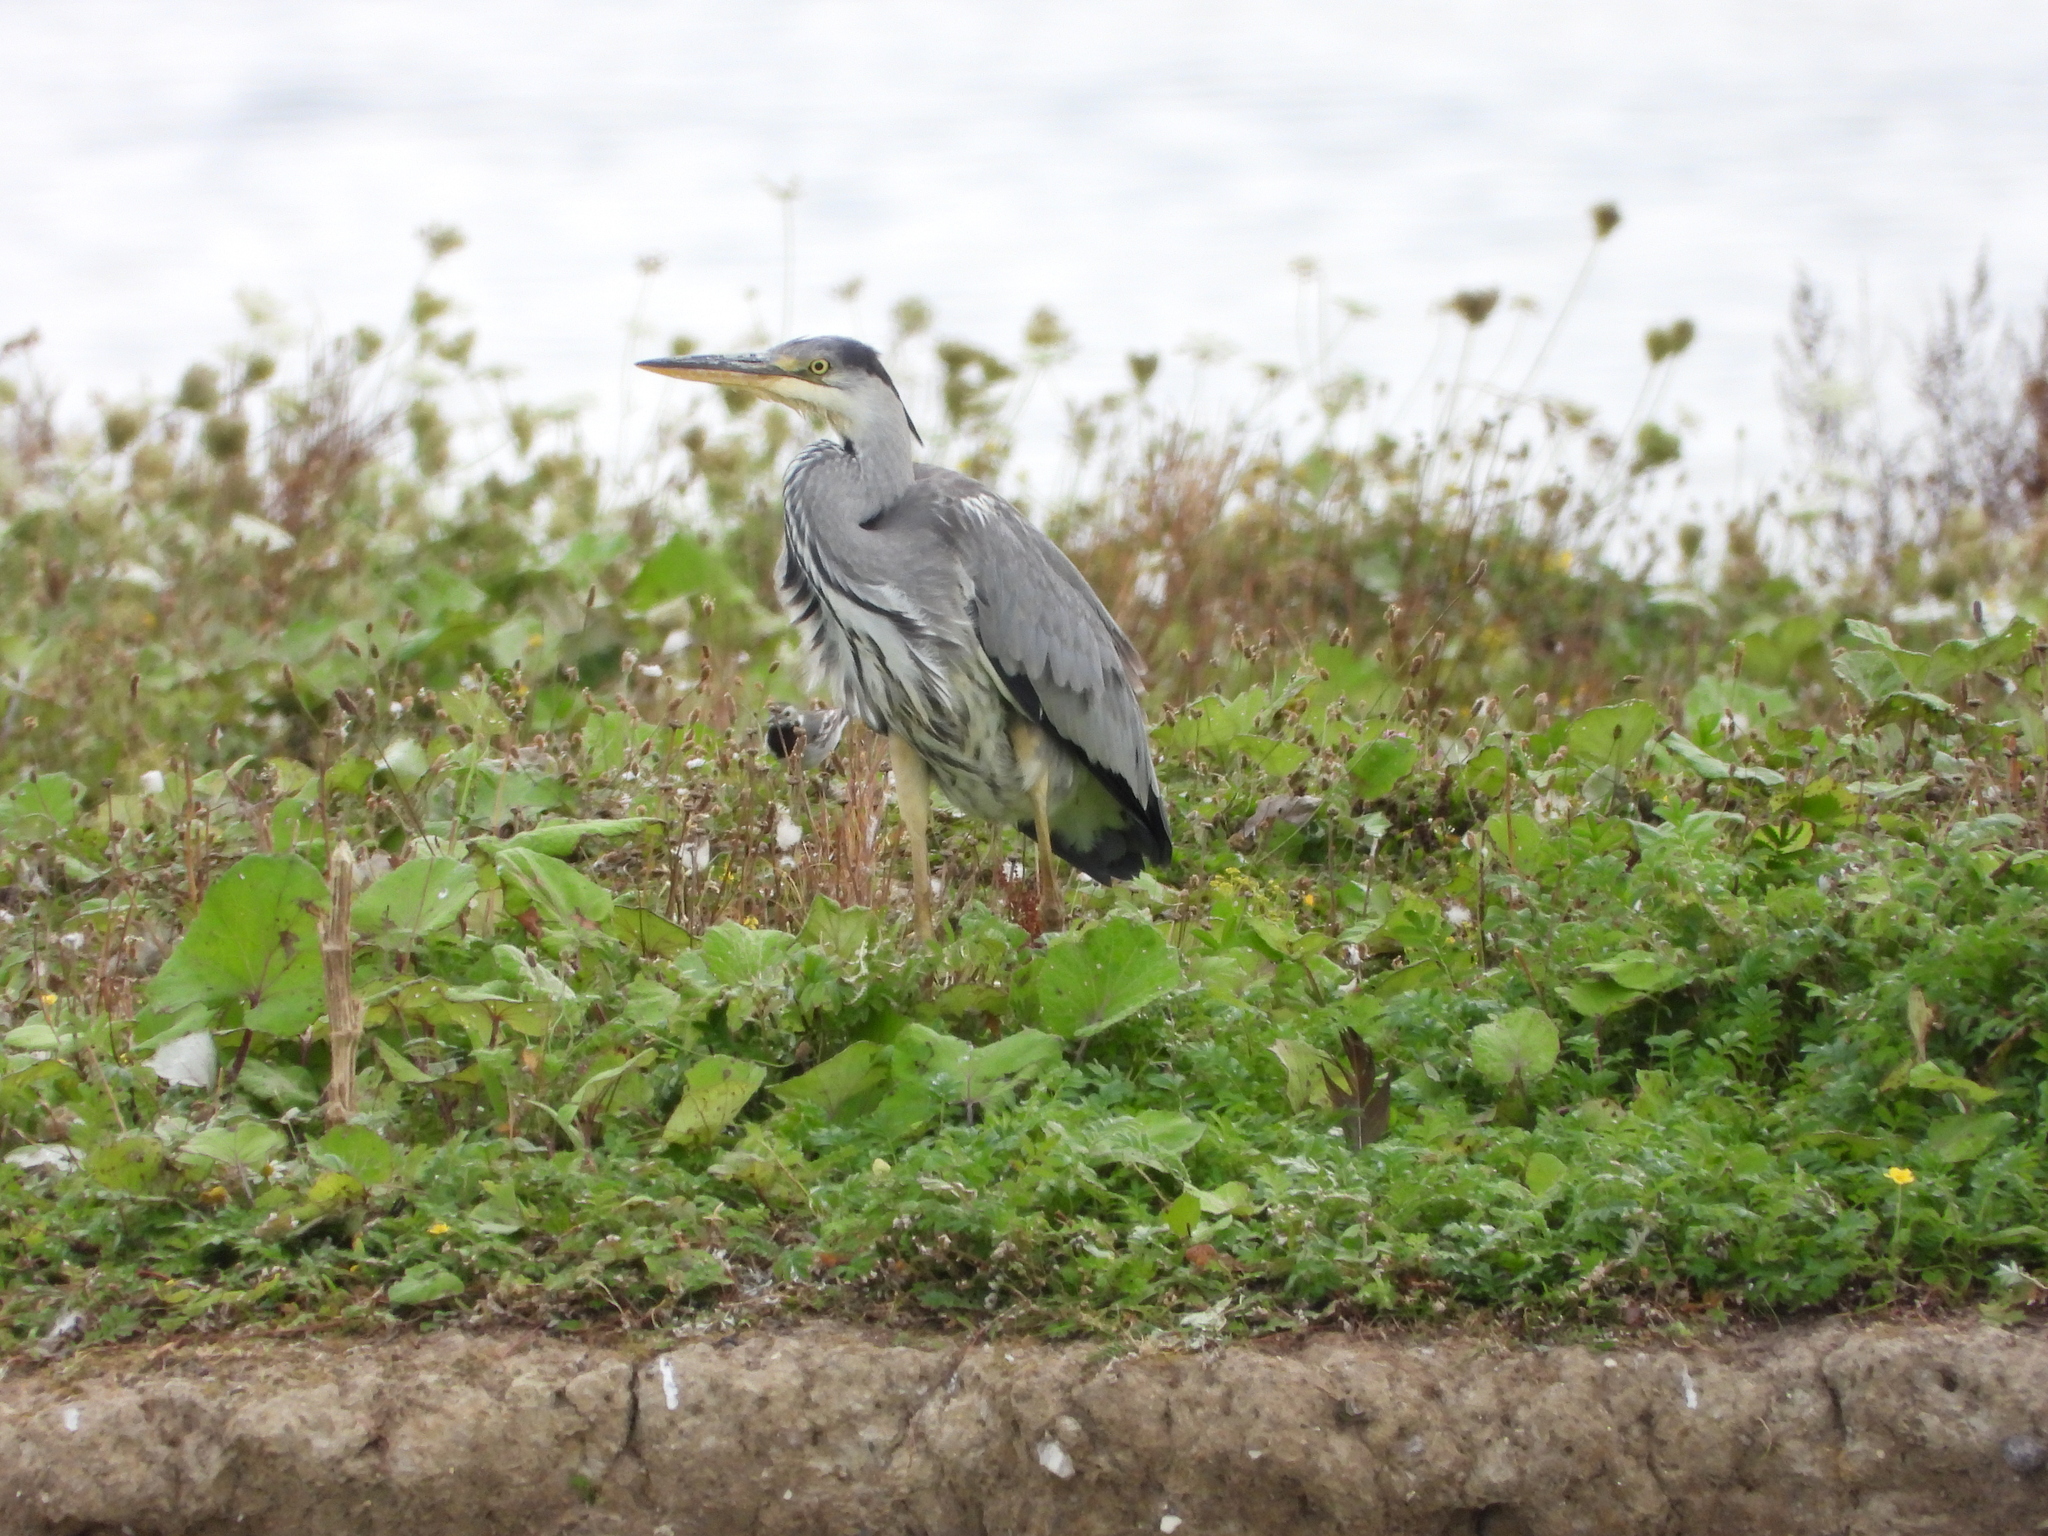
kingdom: Animalia
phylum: Chordata
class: Aves
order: Pelecaniformes
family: Ardeidae
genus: Ardea
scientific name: Ardea cinerea
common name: Grey heron
